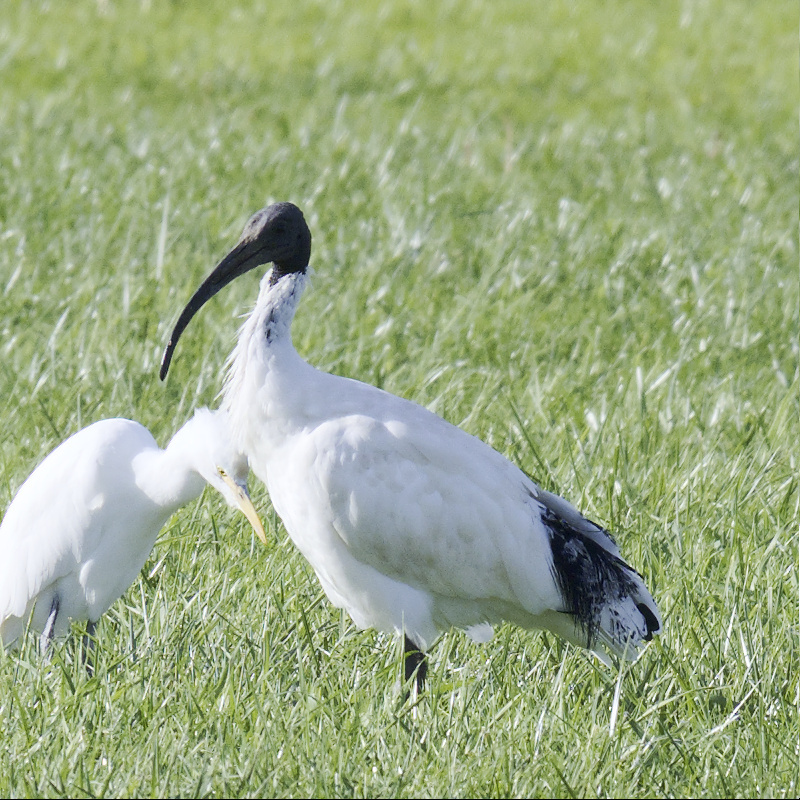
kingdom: Animalia
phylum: Chordata
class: Aves
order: Pelecaniformes
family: Threskiornithidae
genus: Threskiornis
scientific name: Threskiornis molucca
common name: Australian white ibis
